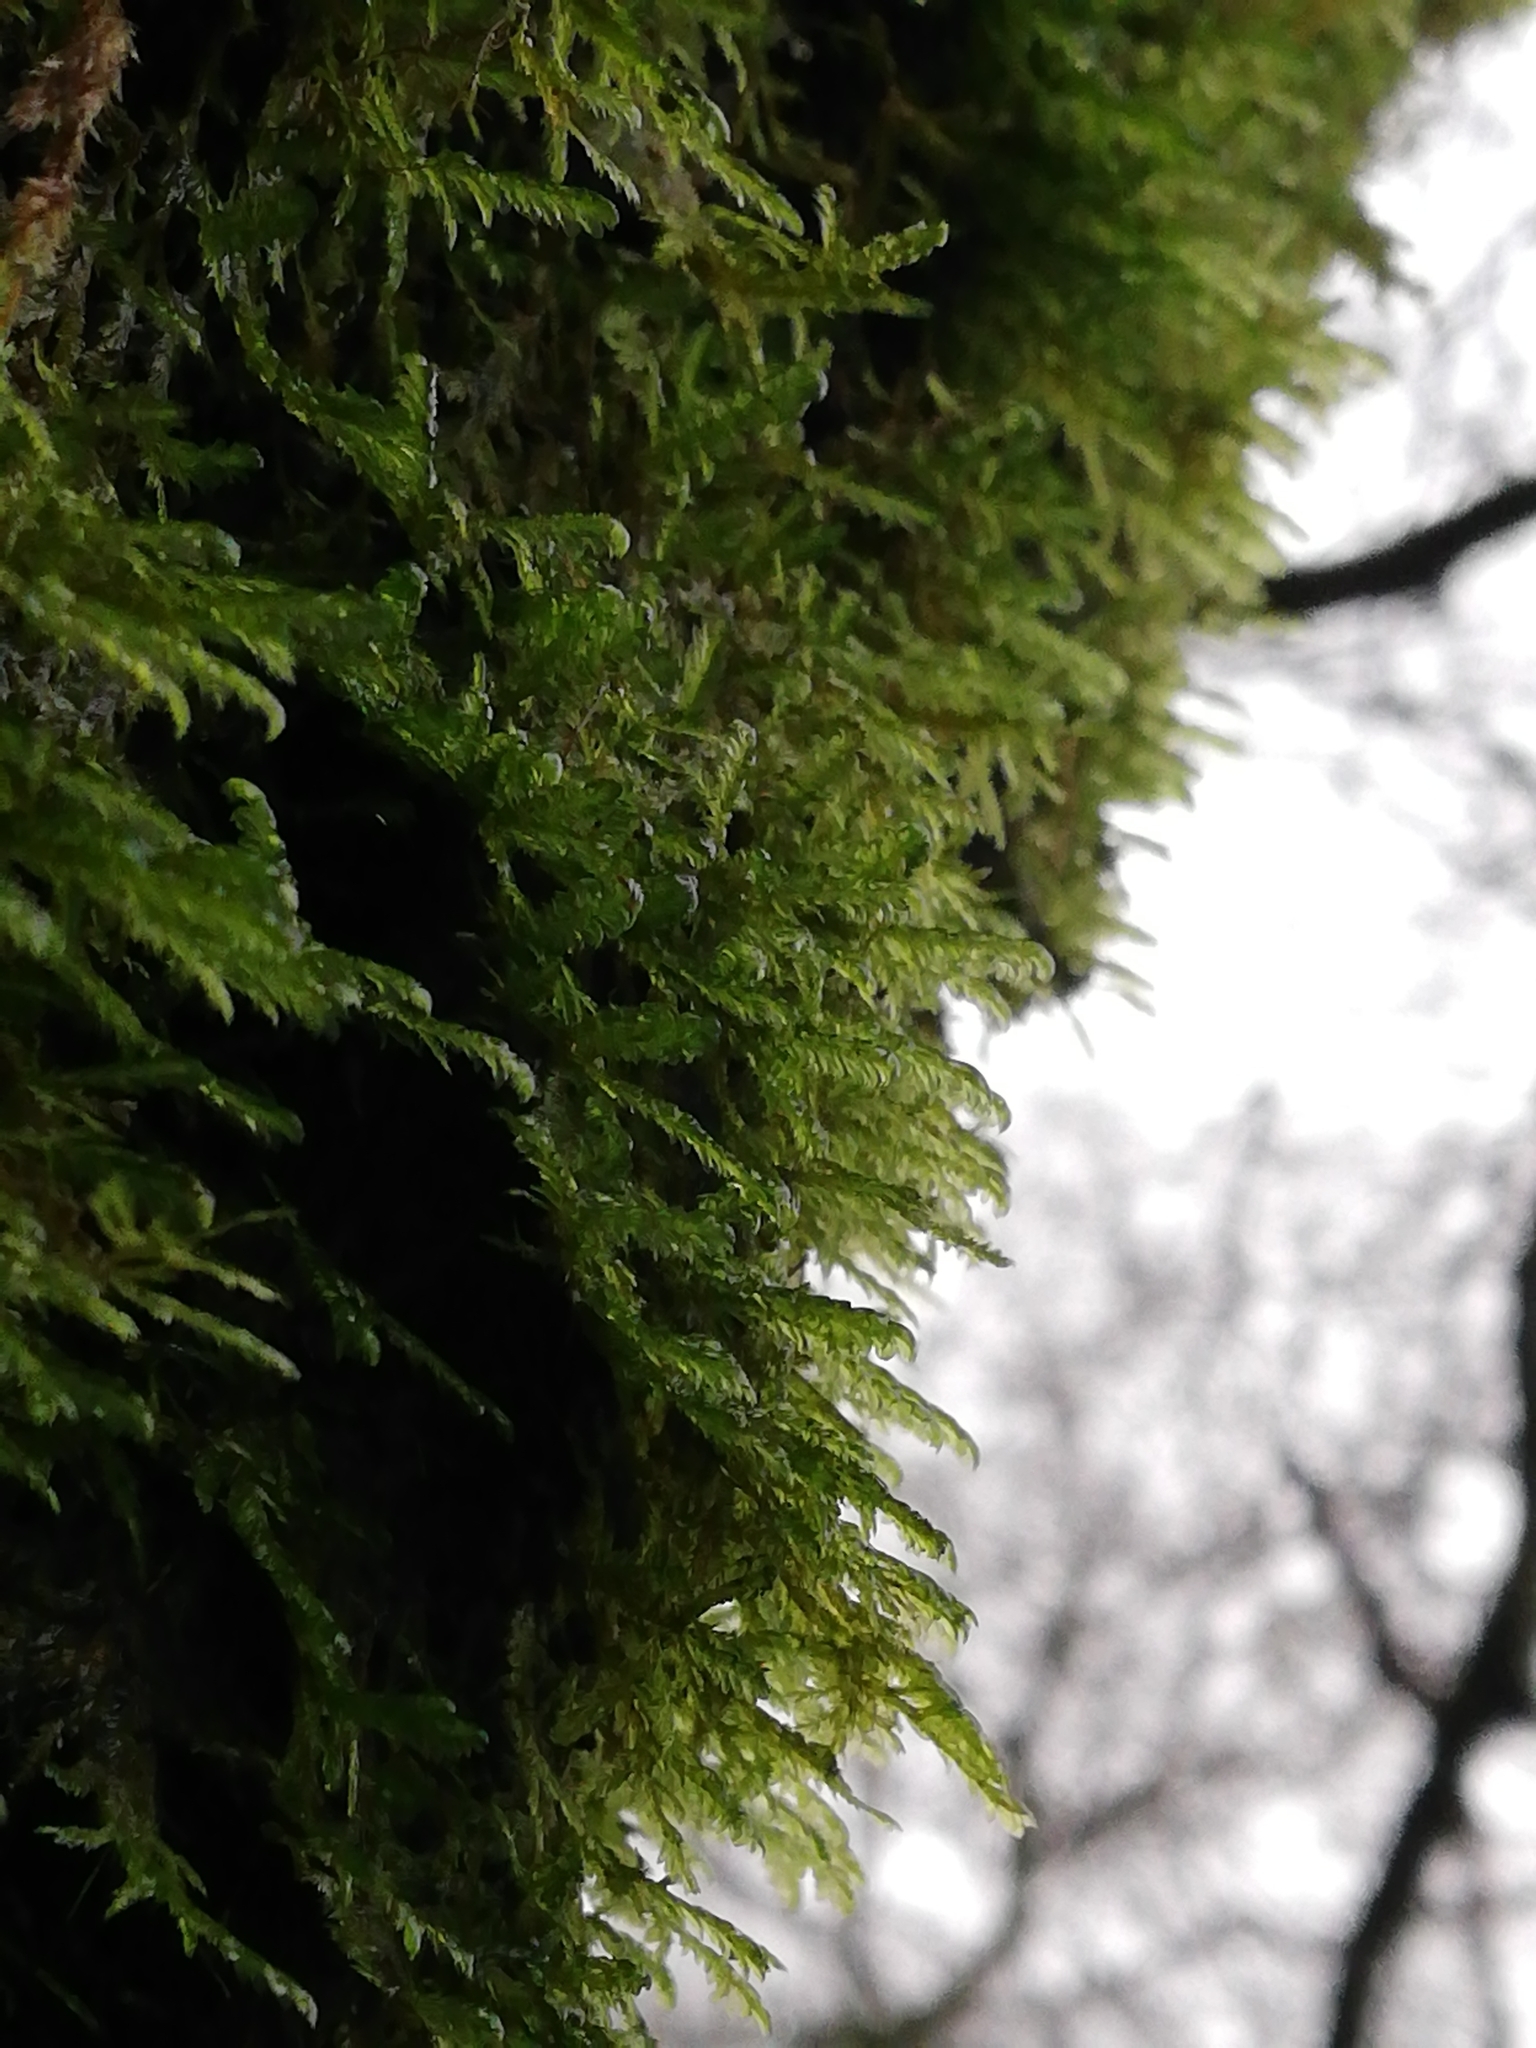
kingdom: Plantae
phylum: Bryophyta
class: Bryopsida
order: Hypnales
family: Neckeraceae
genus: Alleniella
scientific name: Alleniella complanata
